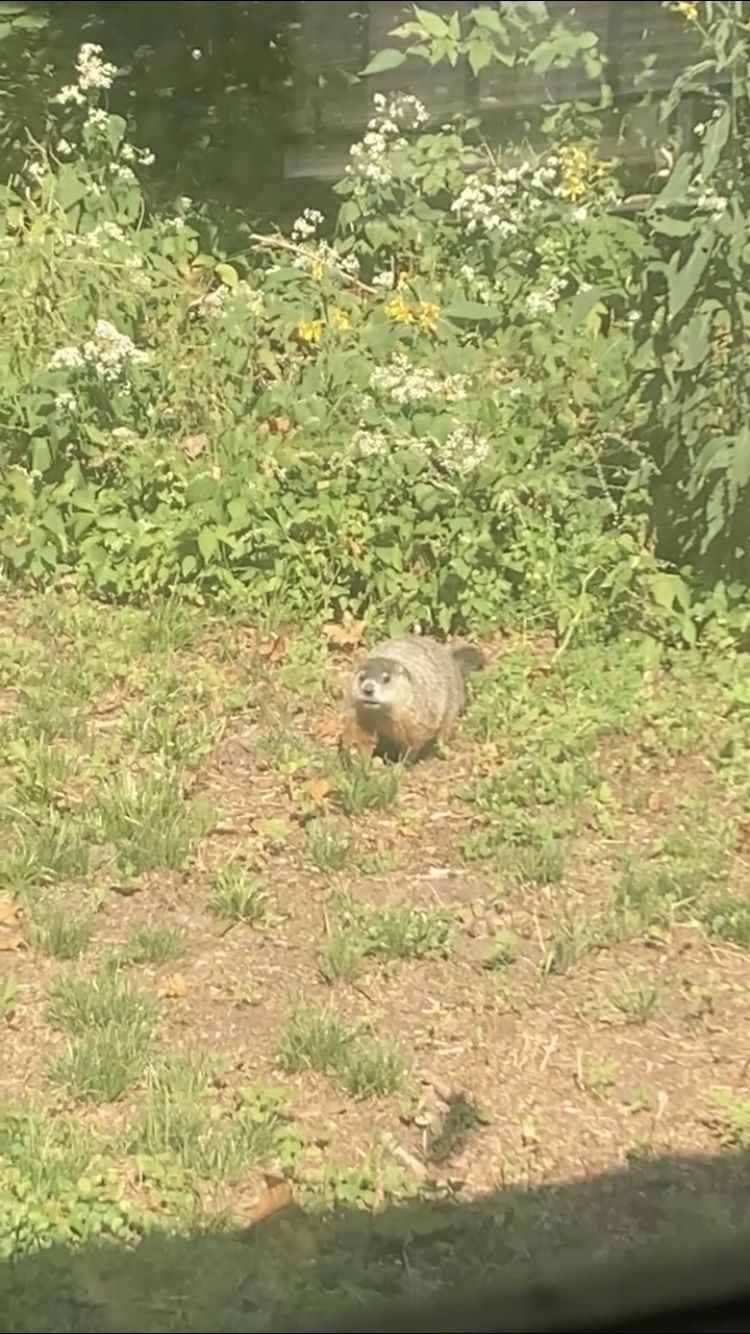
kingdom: Animalia
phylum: Chordata
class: Mammalia
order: Rodentia
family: Sciuridae
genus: Marmota
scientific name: Marmota monax
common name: Groundhog
